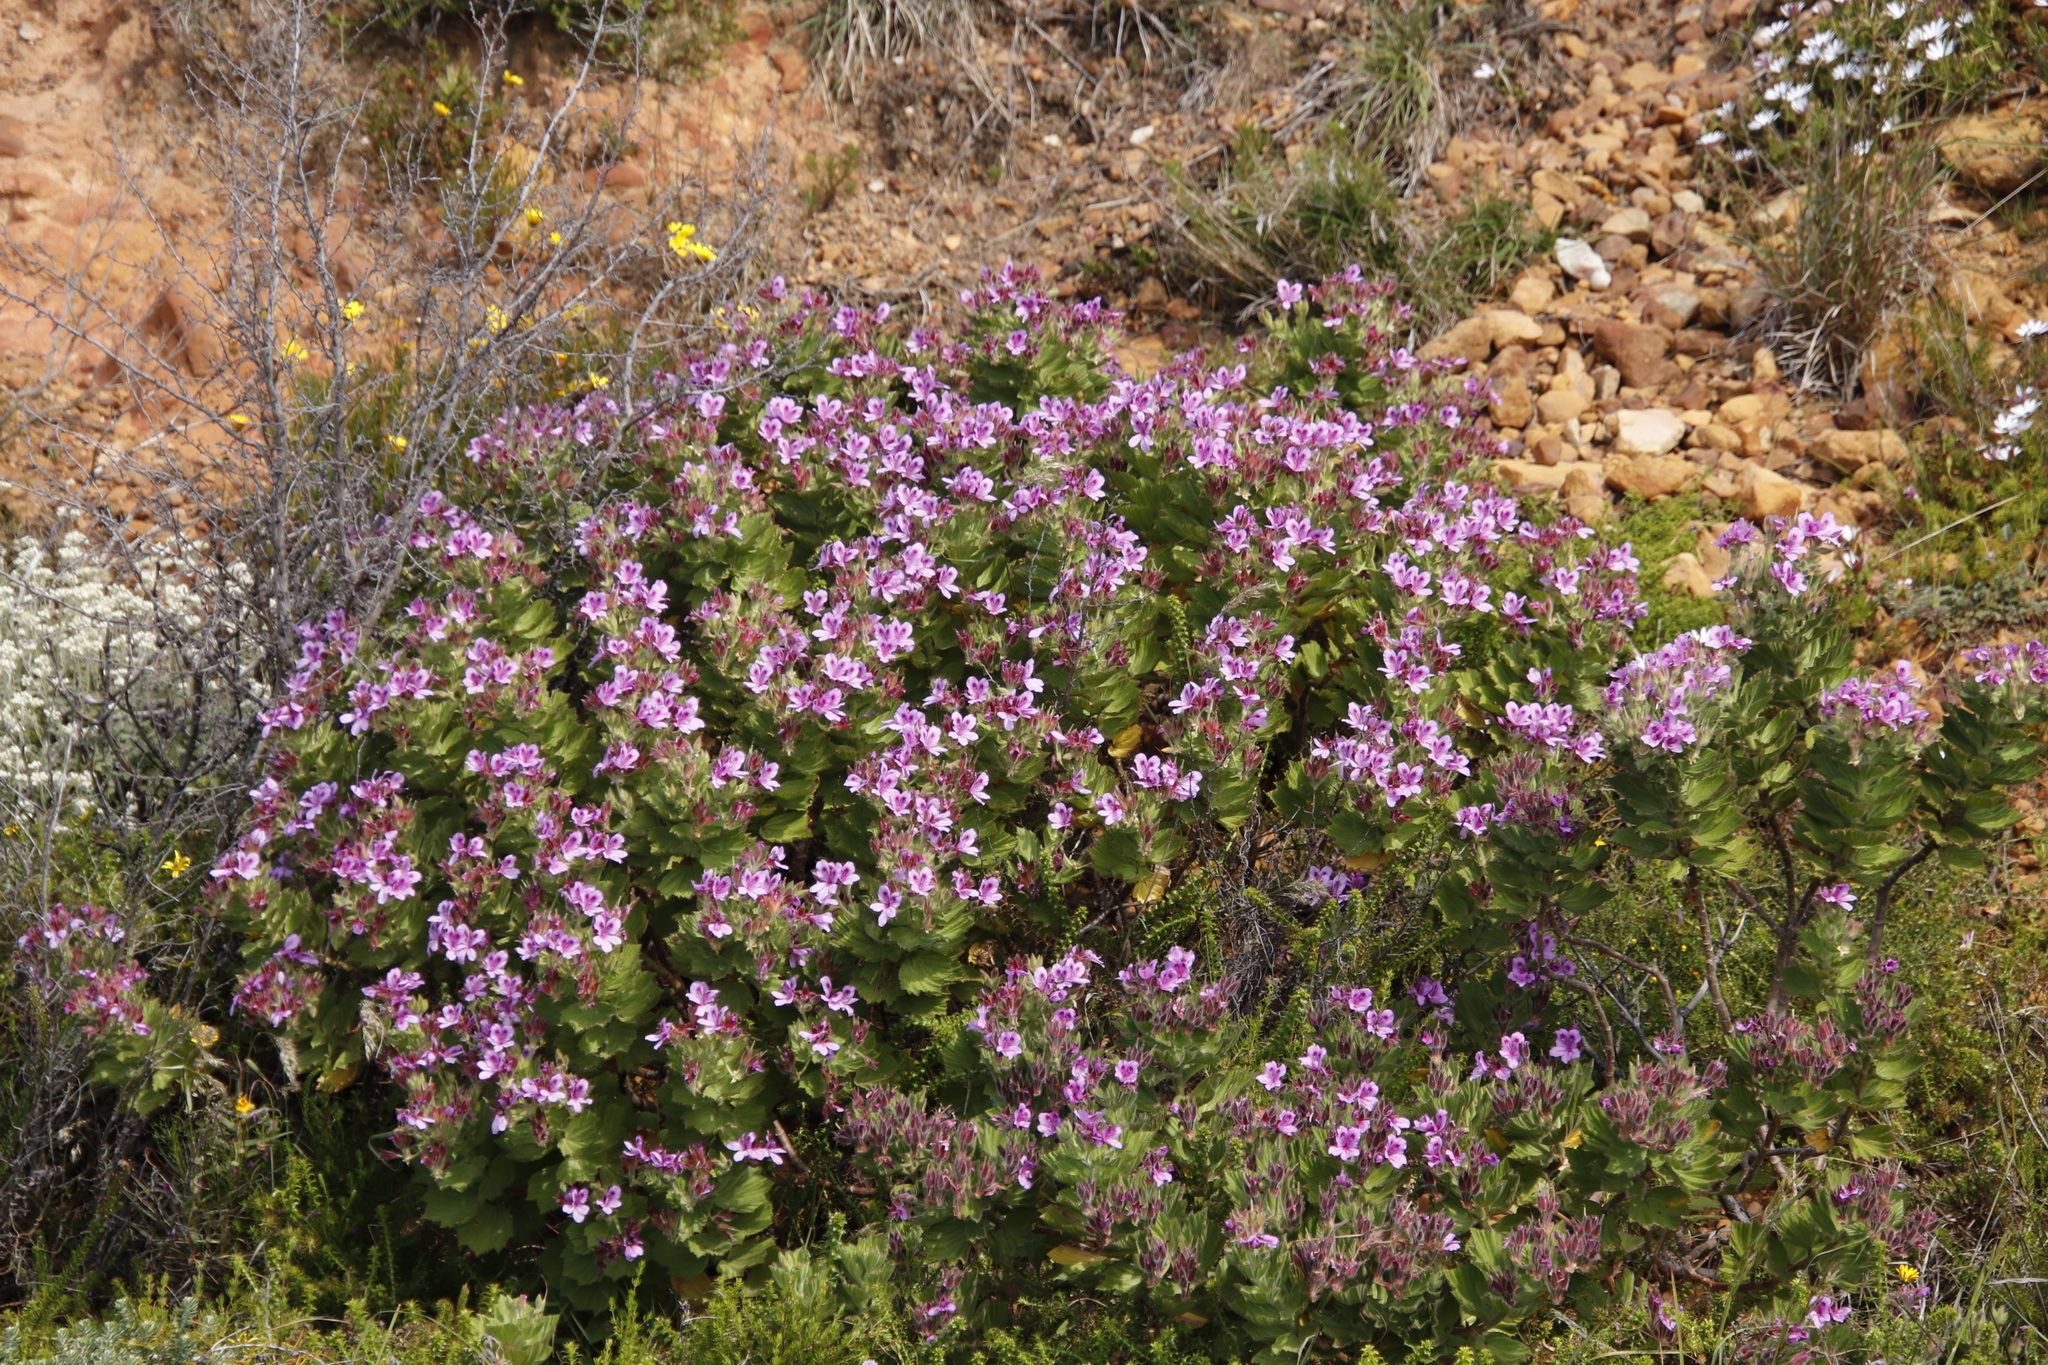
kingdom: Plantae
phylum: Tracheophyta
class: Magnoliopsida
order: Geraniales
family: Geraniaceae
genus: Pelargonium
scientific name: Pelargonium cucullatum
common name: Tree pelargonium
